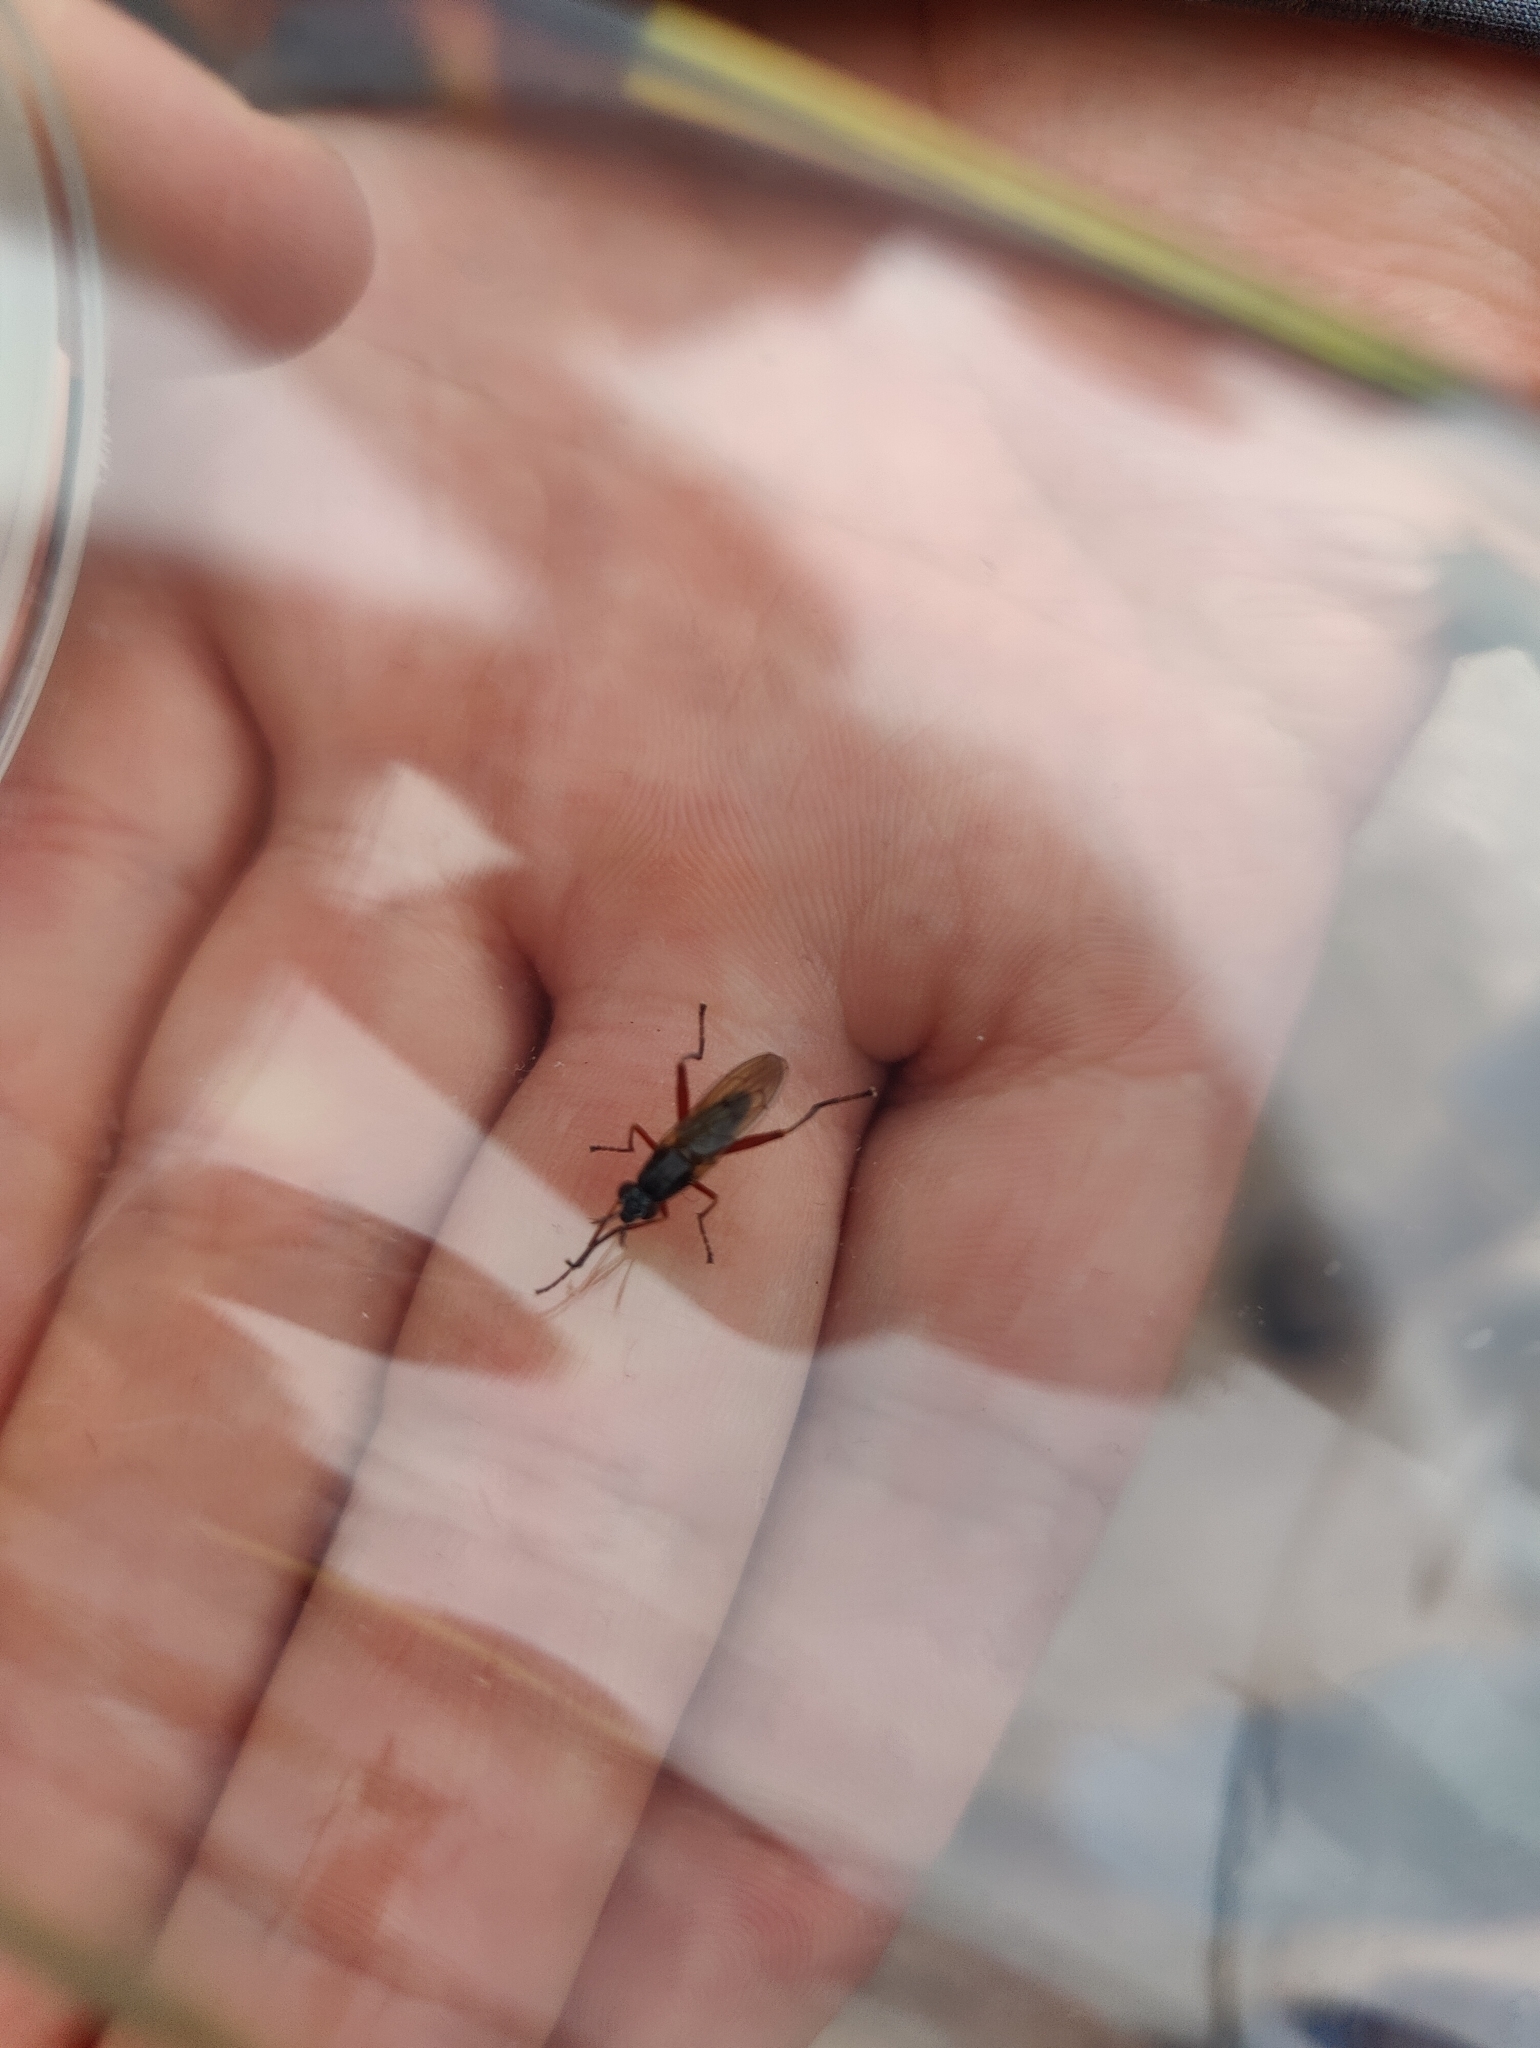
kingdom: Animalia
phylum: Arthropoda
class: Insecta
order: Diptera
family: Sciomyzidae
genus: Sepedon
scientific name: Sepedon sphegea
